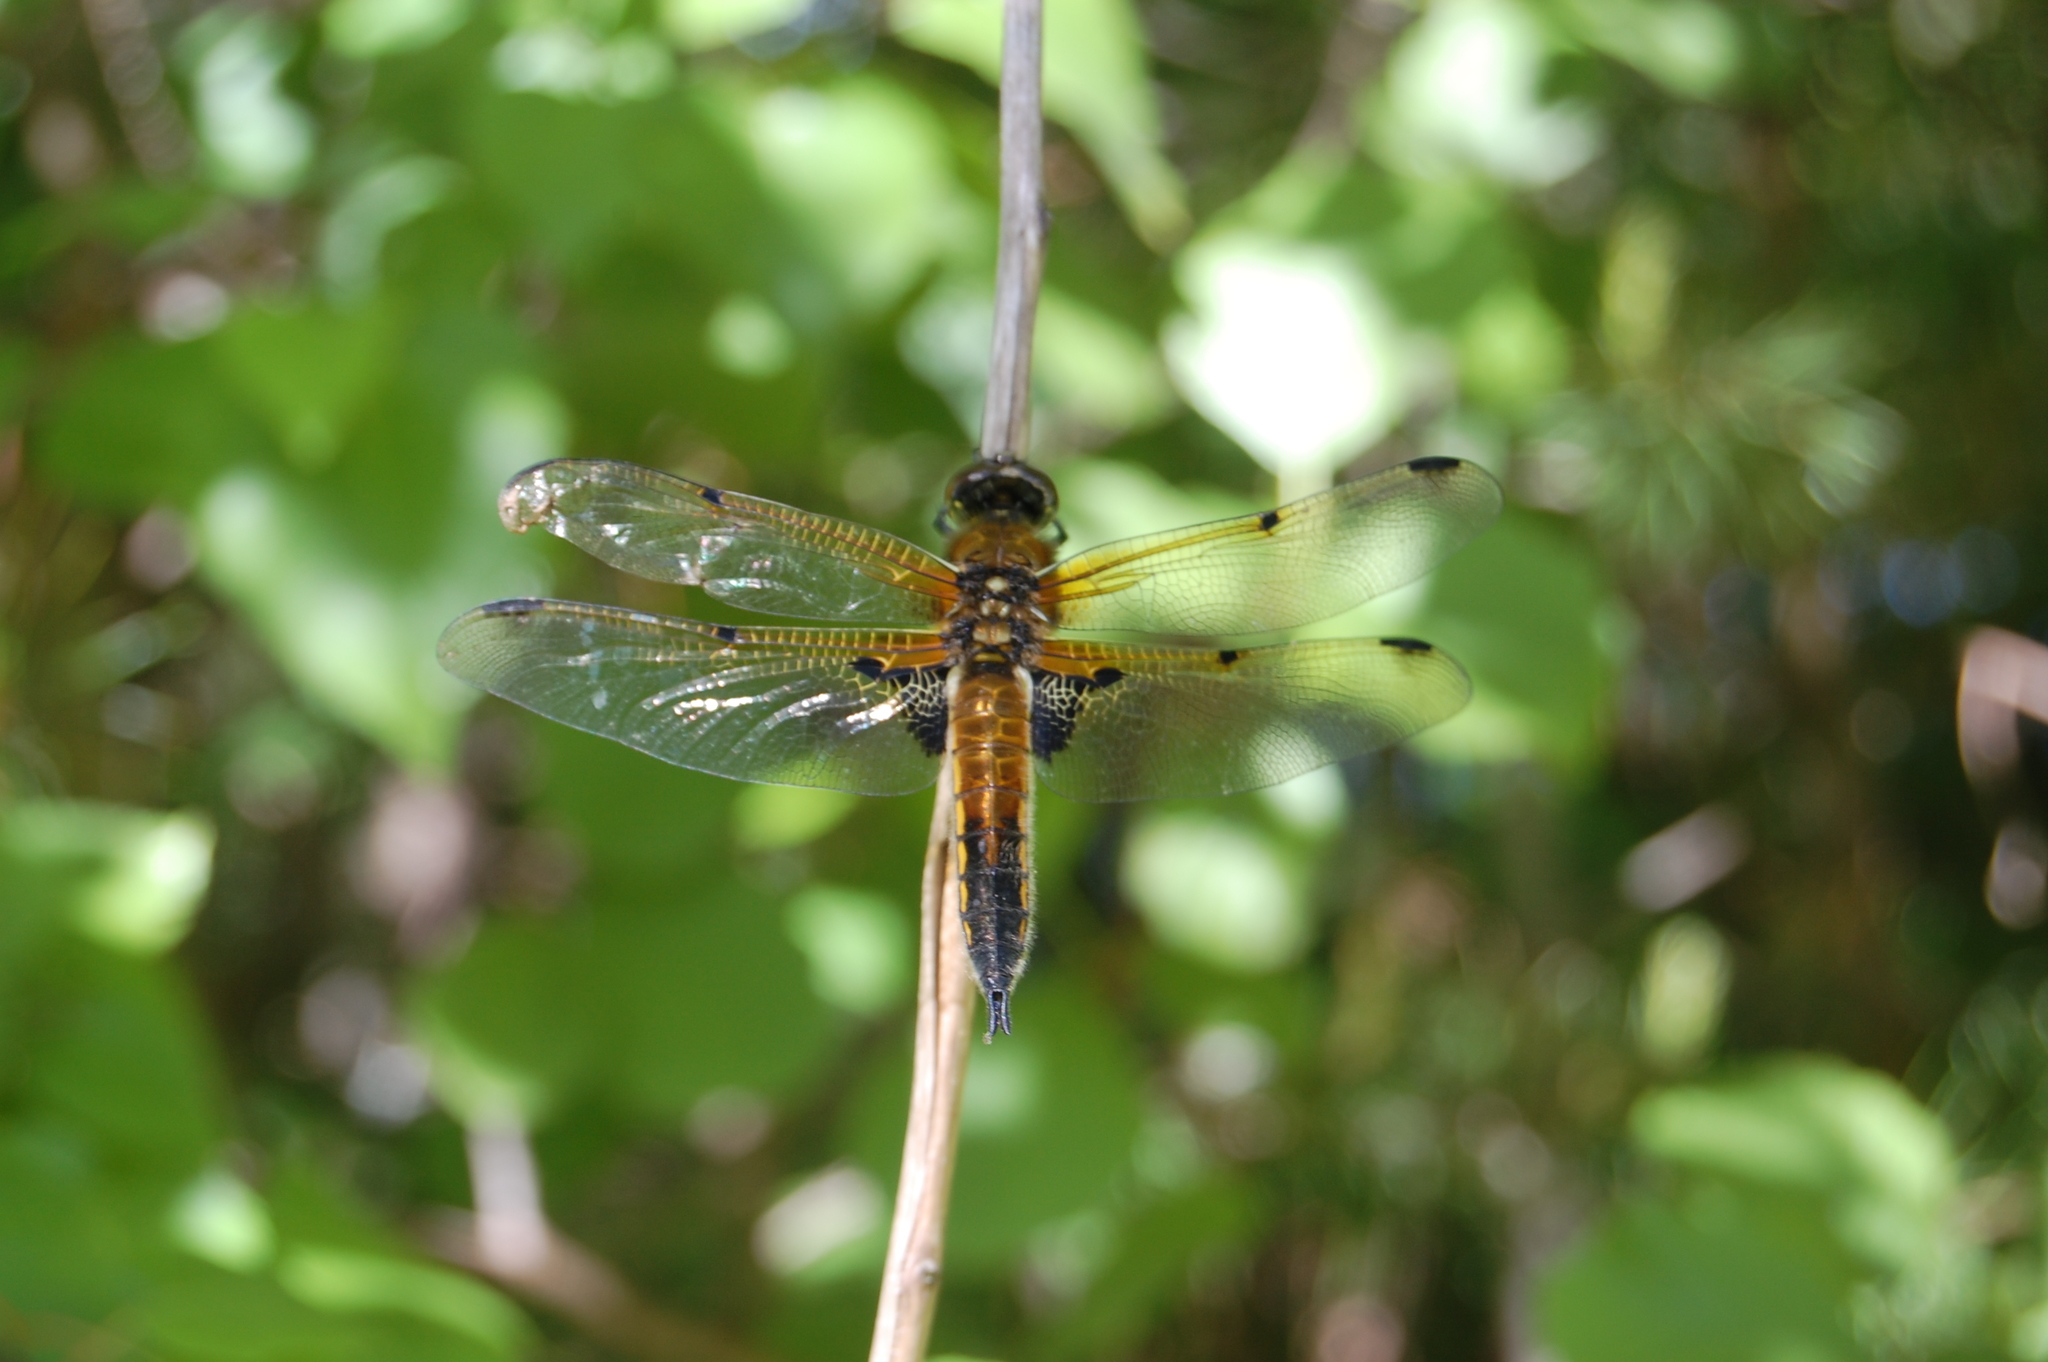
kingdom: Animalia
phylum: Arthropoda
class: Insecta
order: Odonata
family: Libellulidae
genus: Libellula
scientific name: Libellula quadrimaculata
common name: Four-spotted chaser
